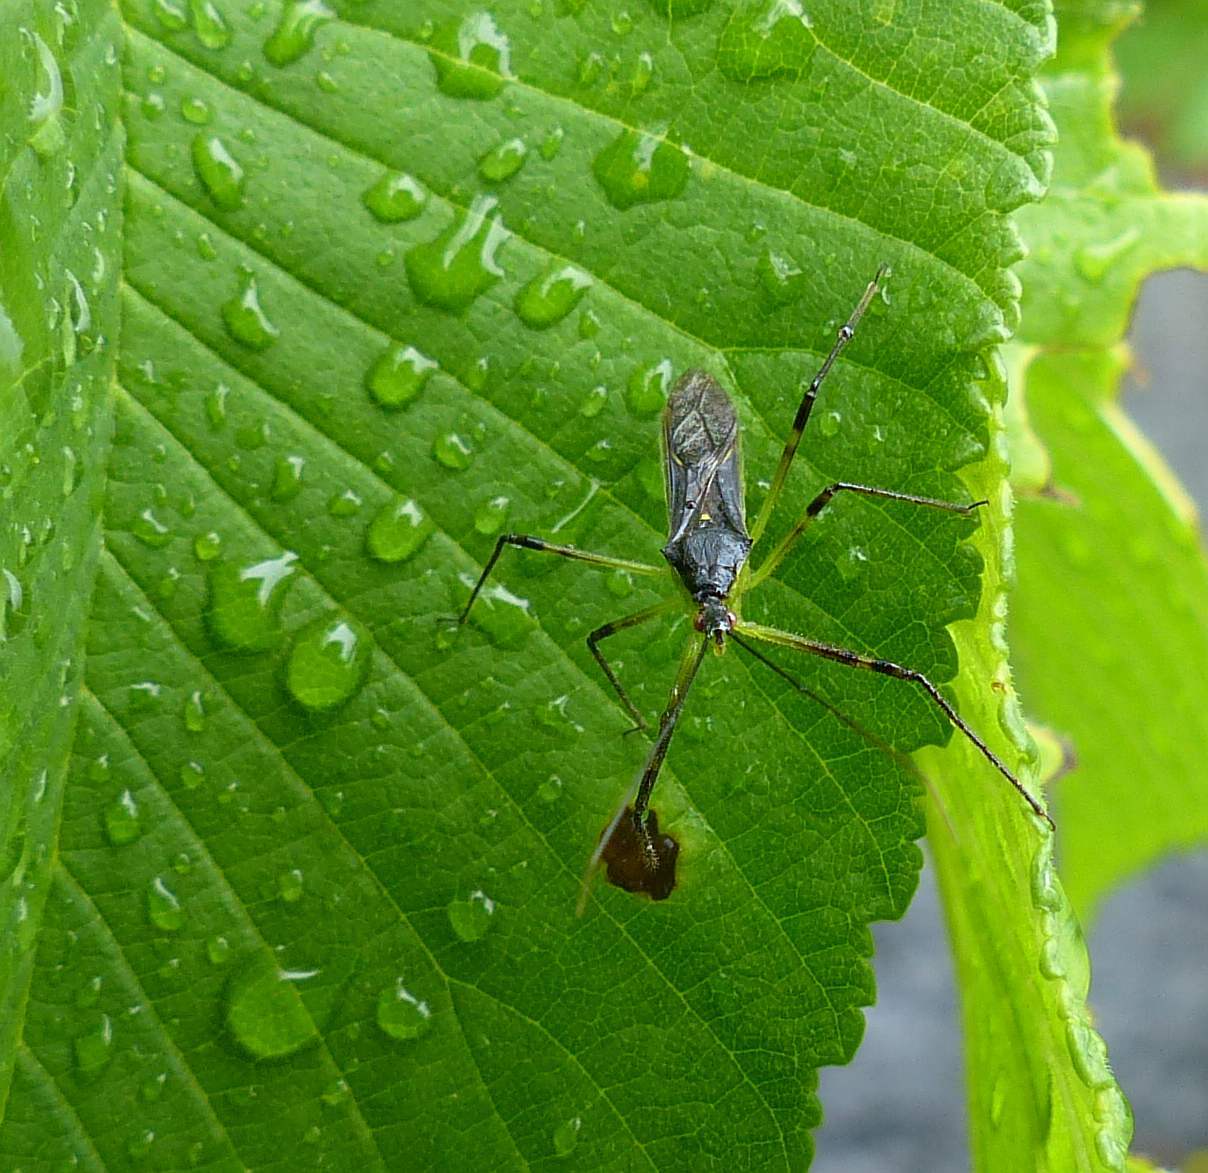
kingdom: Animalia
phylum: Arthropoda
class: Insecta
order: Hemiptera
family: Reduviidae
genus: Zelus
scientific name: Zelus luridus
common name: Pale green assassin bug
